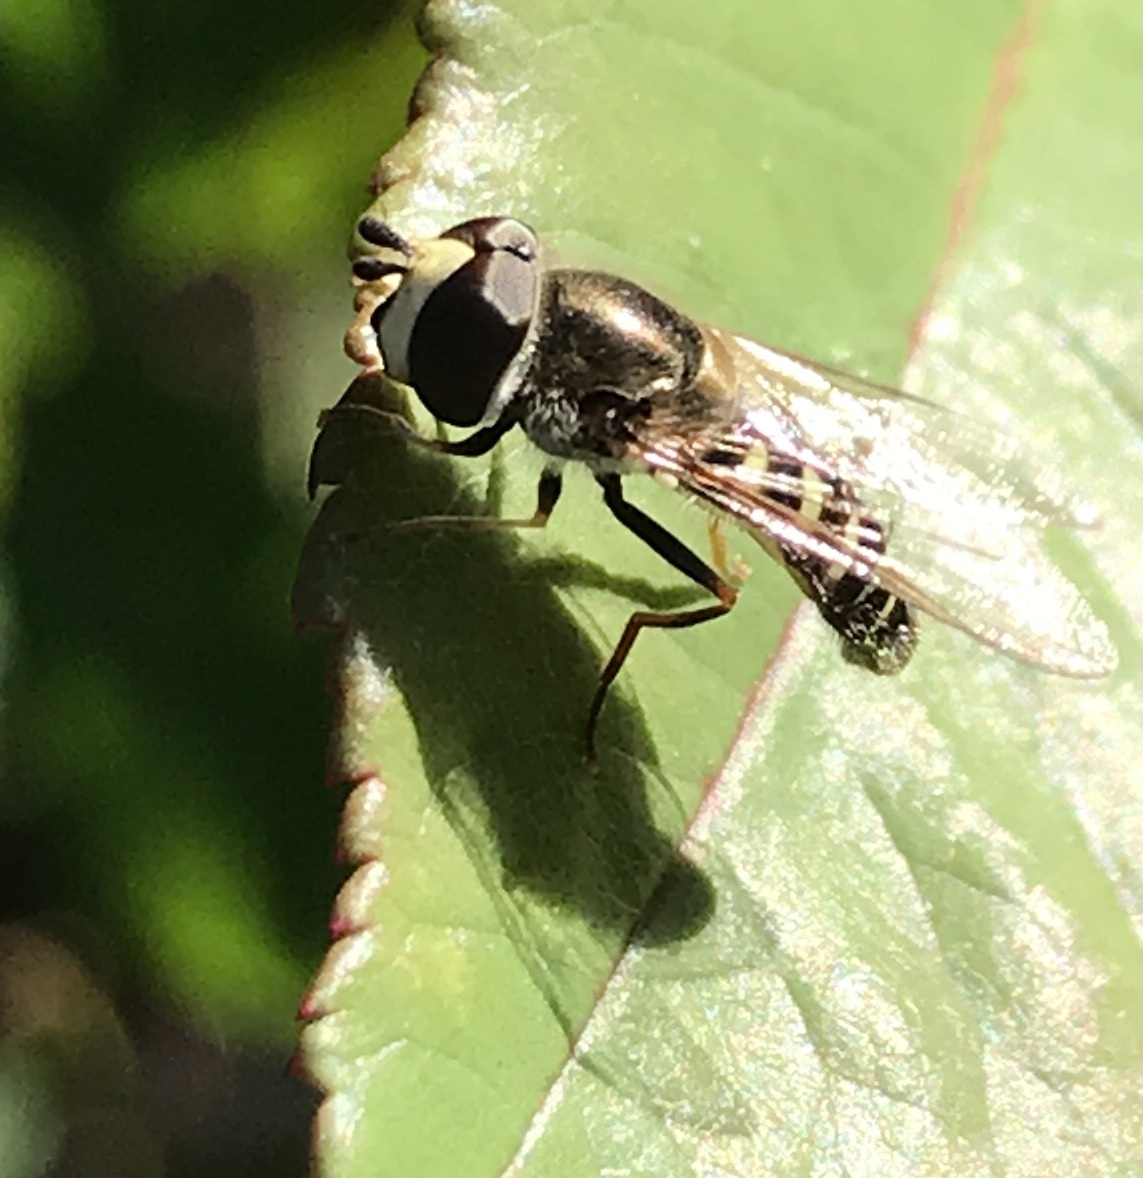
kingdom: Animalia
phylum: Arthropoda
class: Insecta
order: Diptera
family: Syrphidae
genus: Eupeodes
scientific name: Eupeodes volucris
